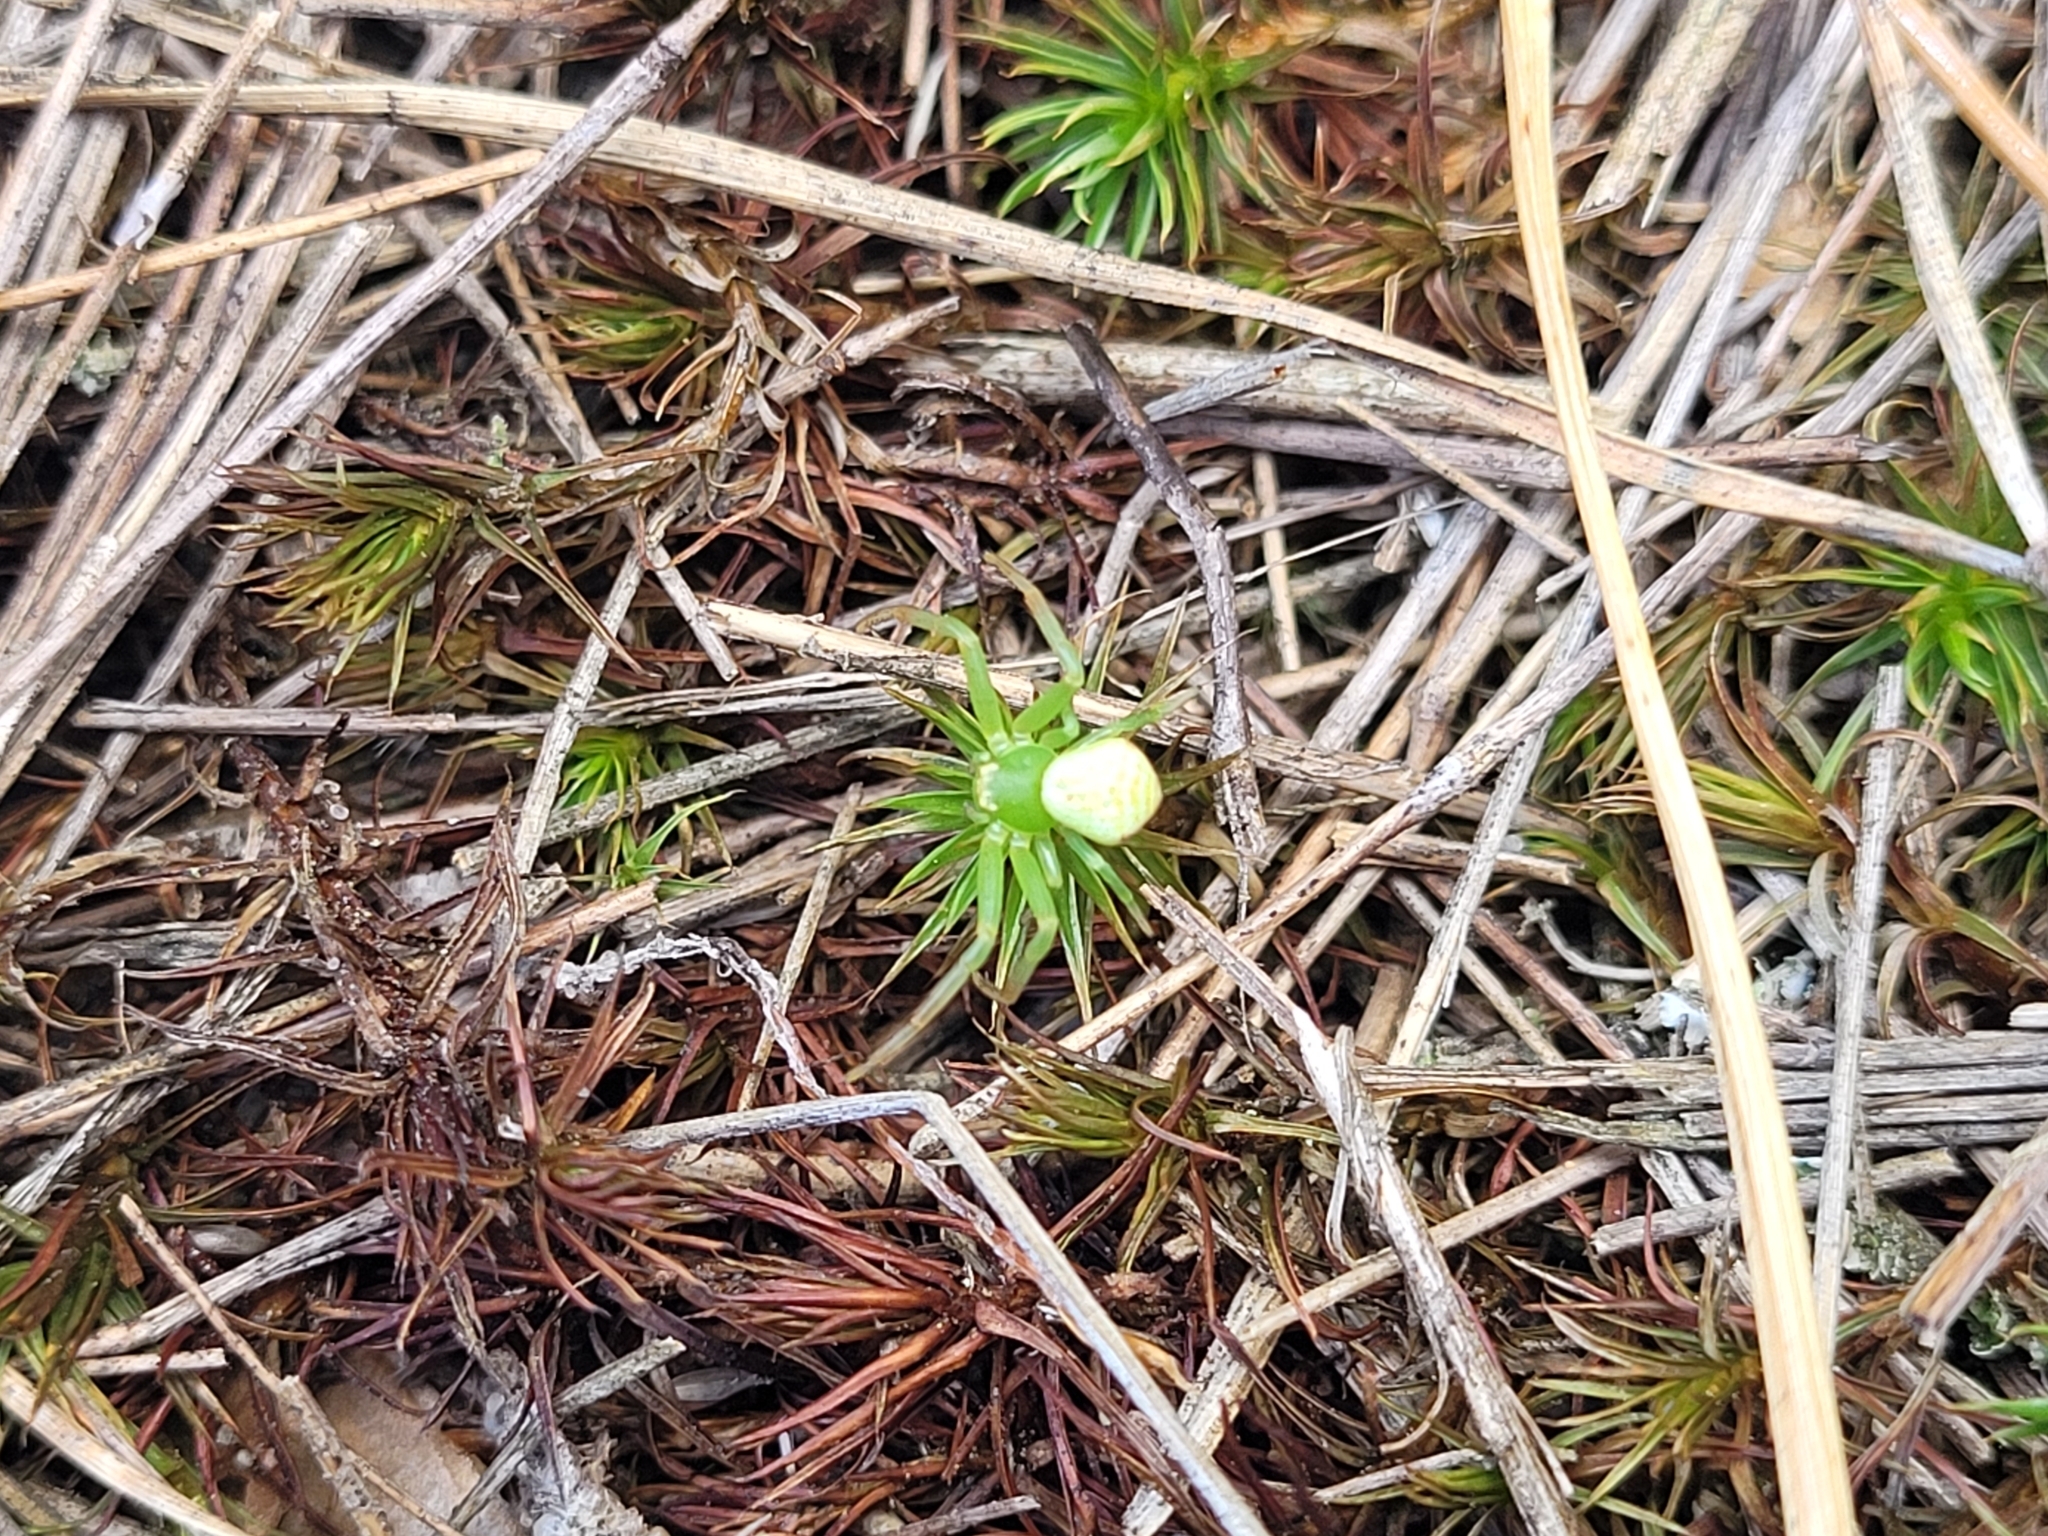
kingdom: Animalia
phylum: Arthropoda
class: Arachnida
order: Araneae
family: Thomisidae
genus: Ebrechtella
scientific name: Ebrechtella tricuspidata
